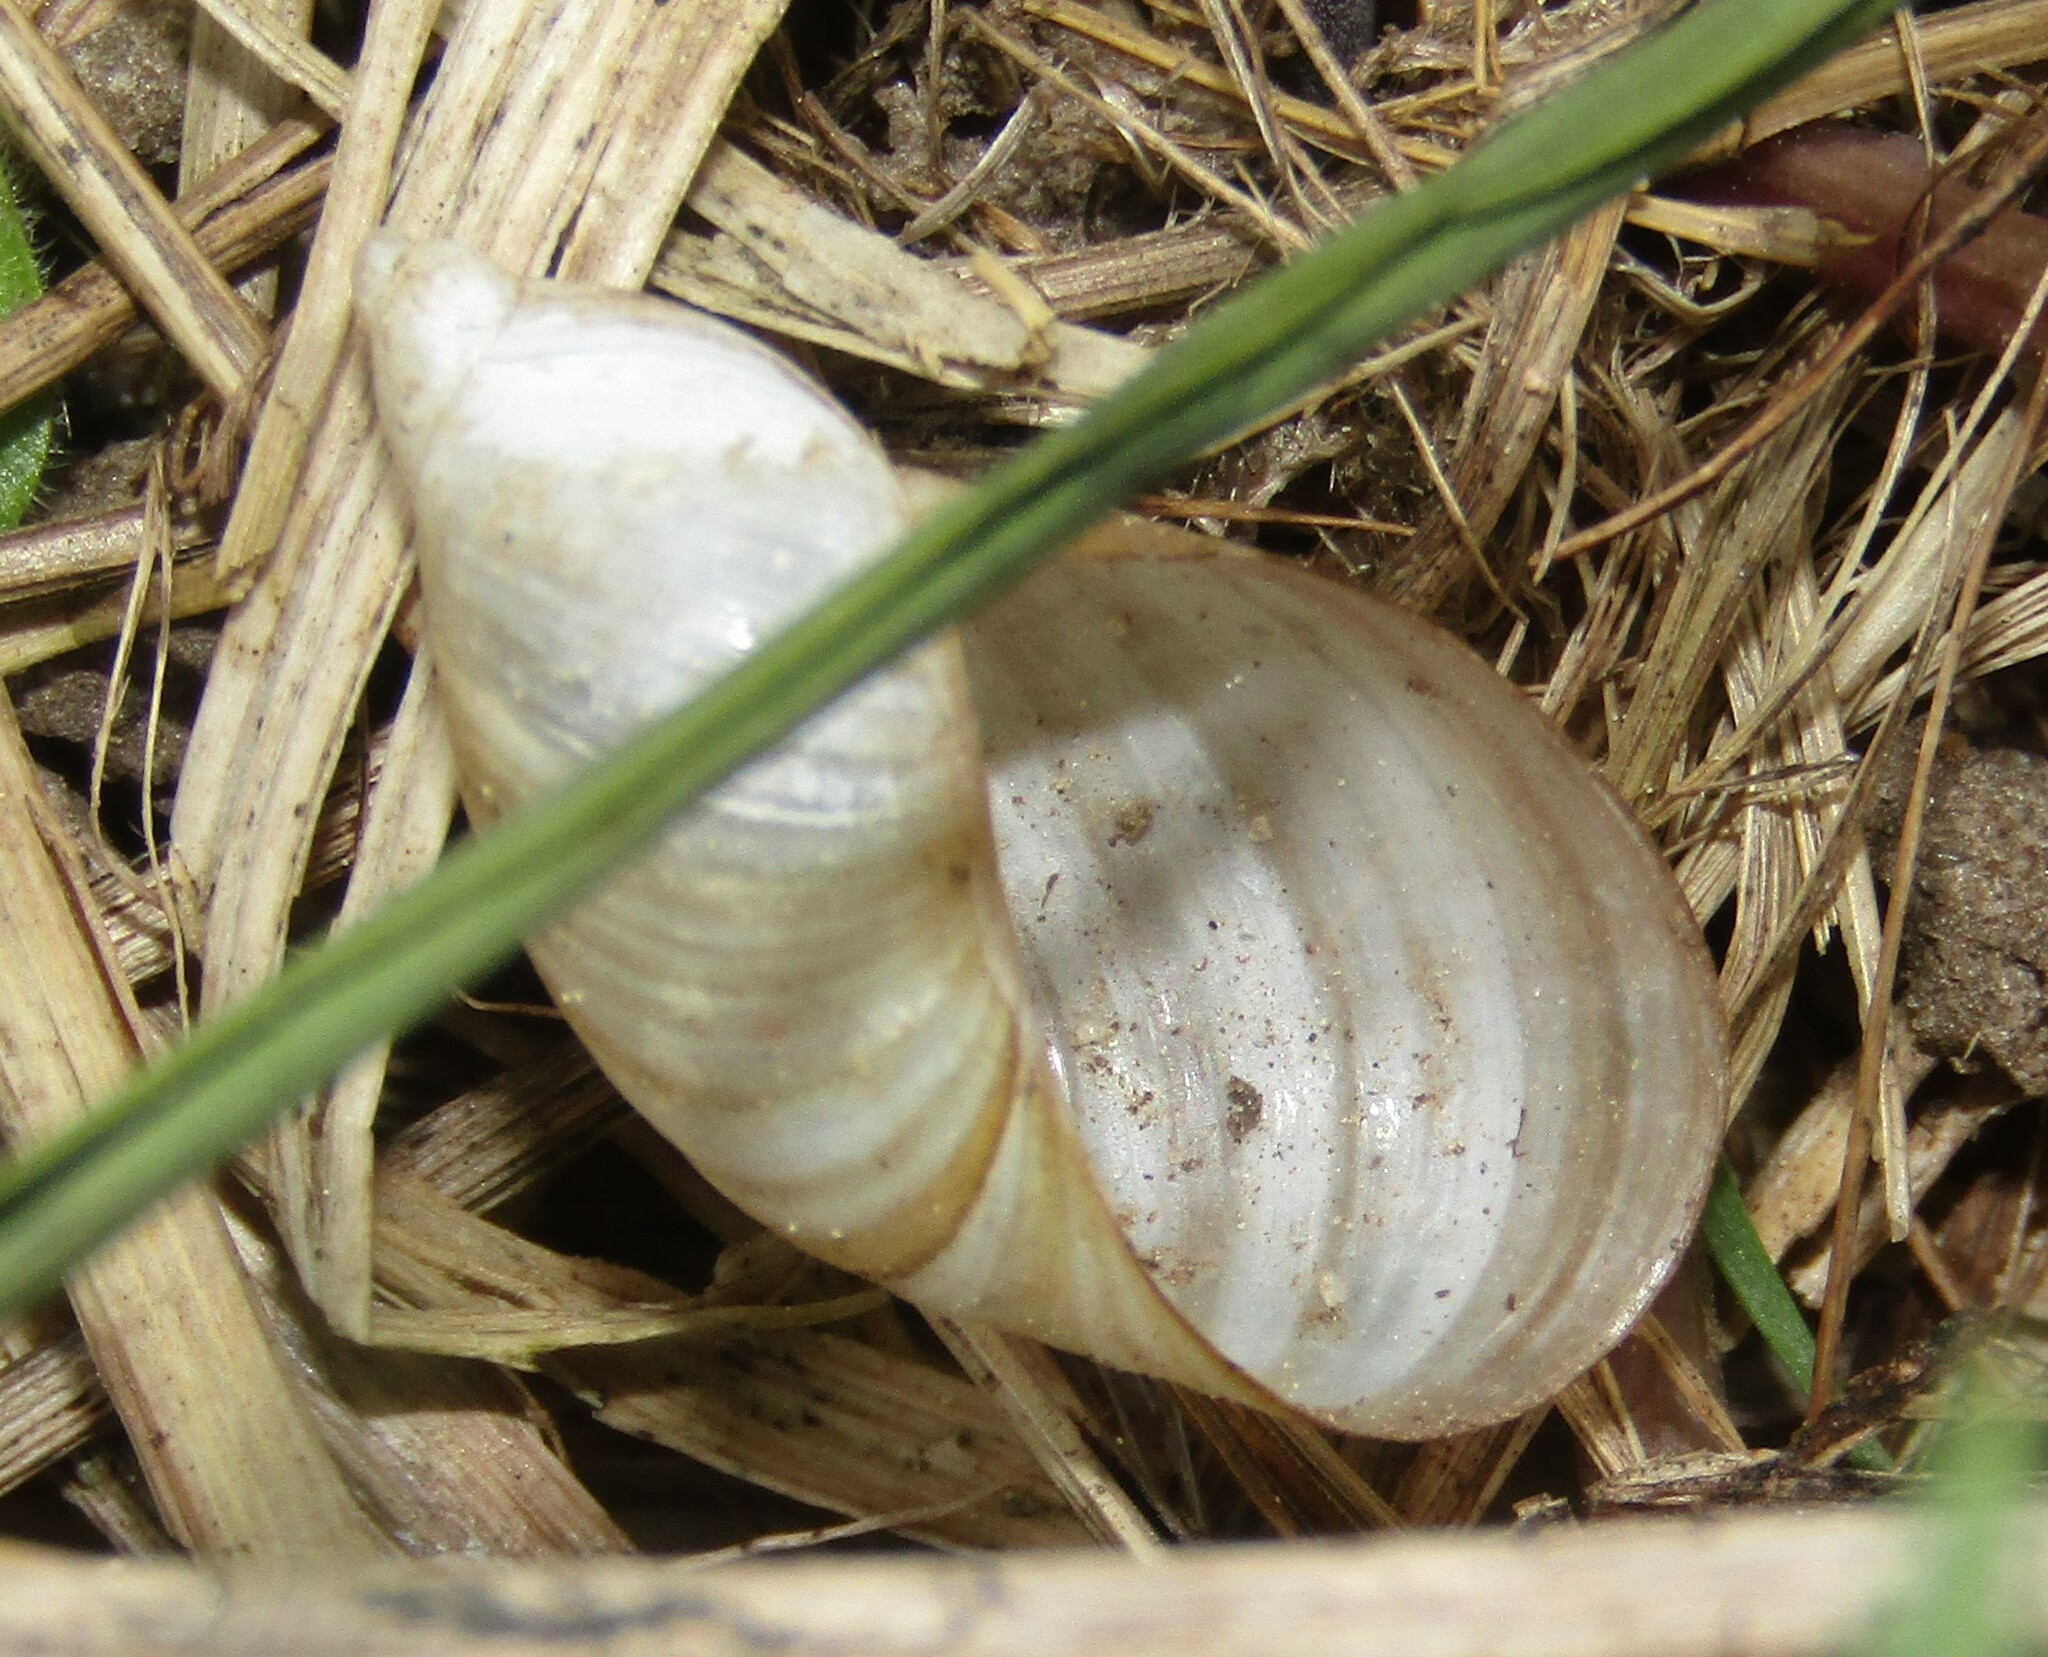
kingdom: Animalia
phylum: Mollusca
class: Gastropoda
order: Stylommatophora
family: Succineidae
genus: Succinea
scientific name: Succinea putris
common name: European ambersnail
